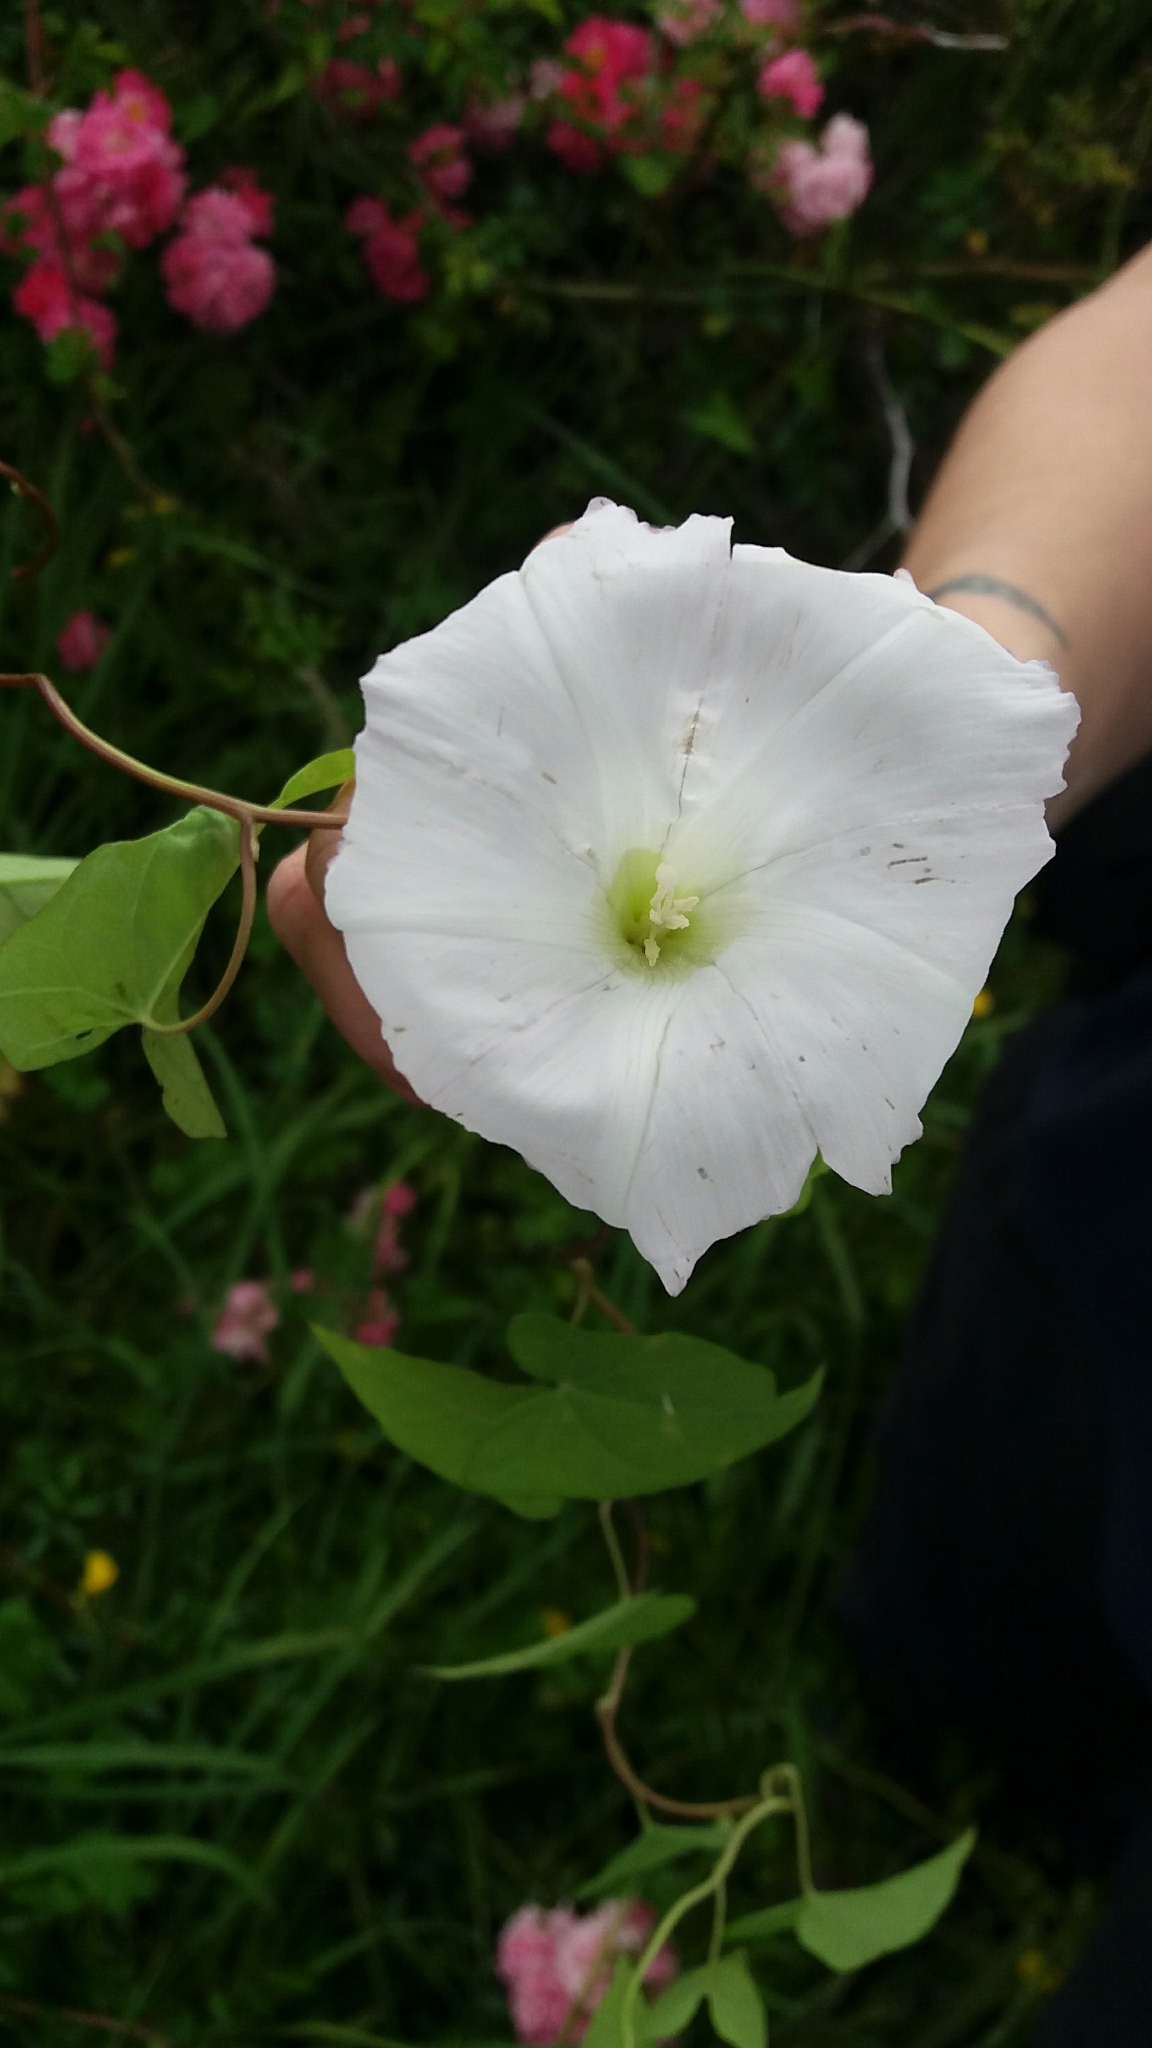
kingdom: Plantae
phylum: Tracheophyta
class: Magnoliopsida
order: Solanales
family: Convolvulaceae
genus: Calystegia
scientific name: Calystegia silvatica
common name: Large bindweed
